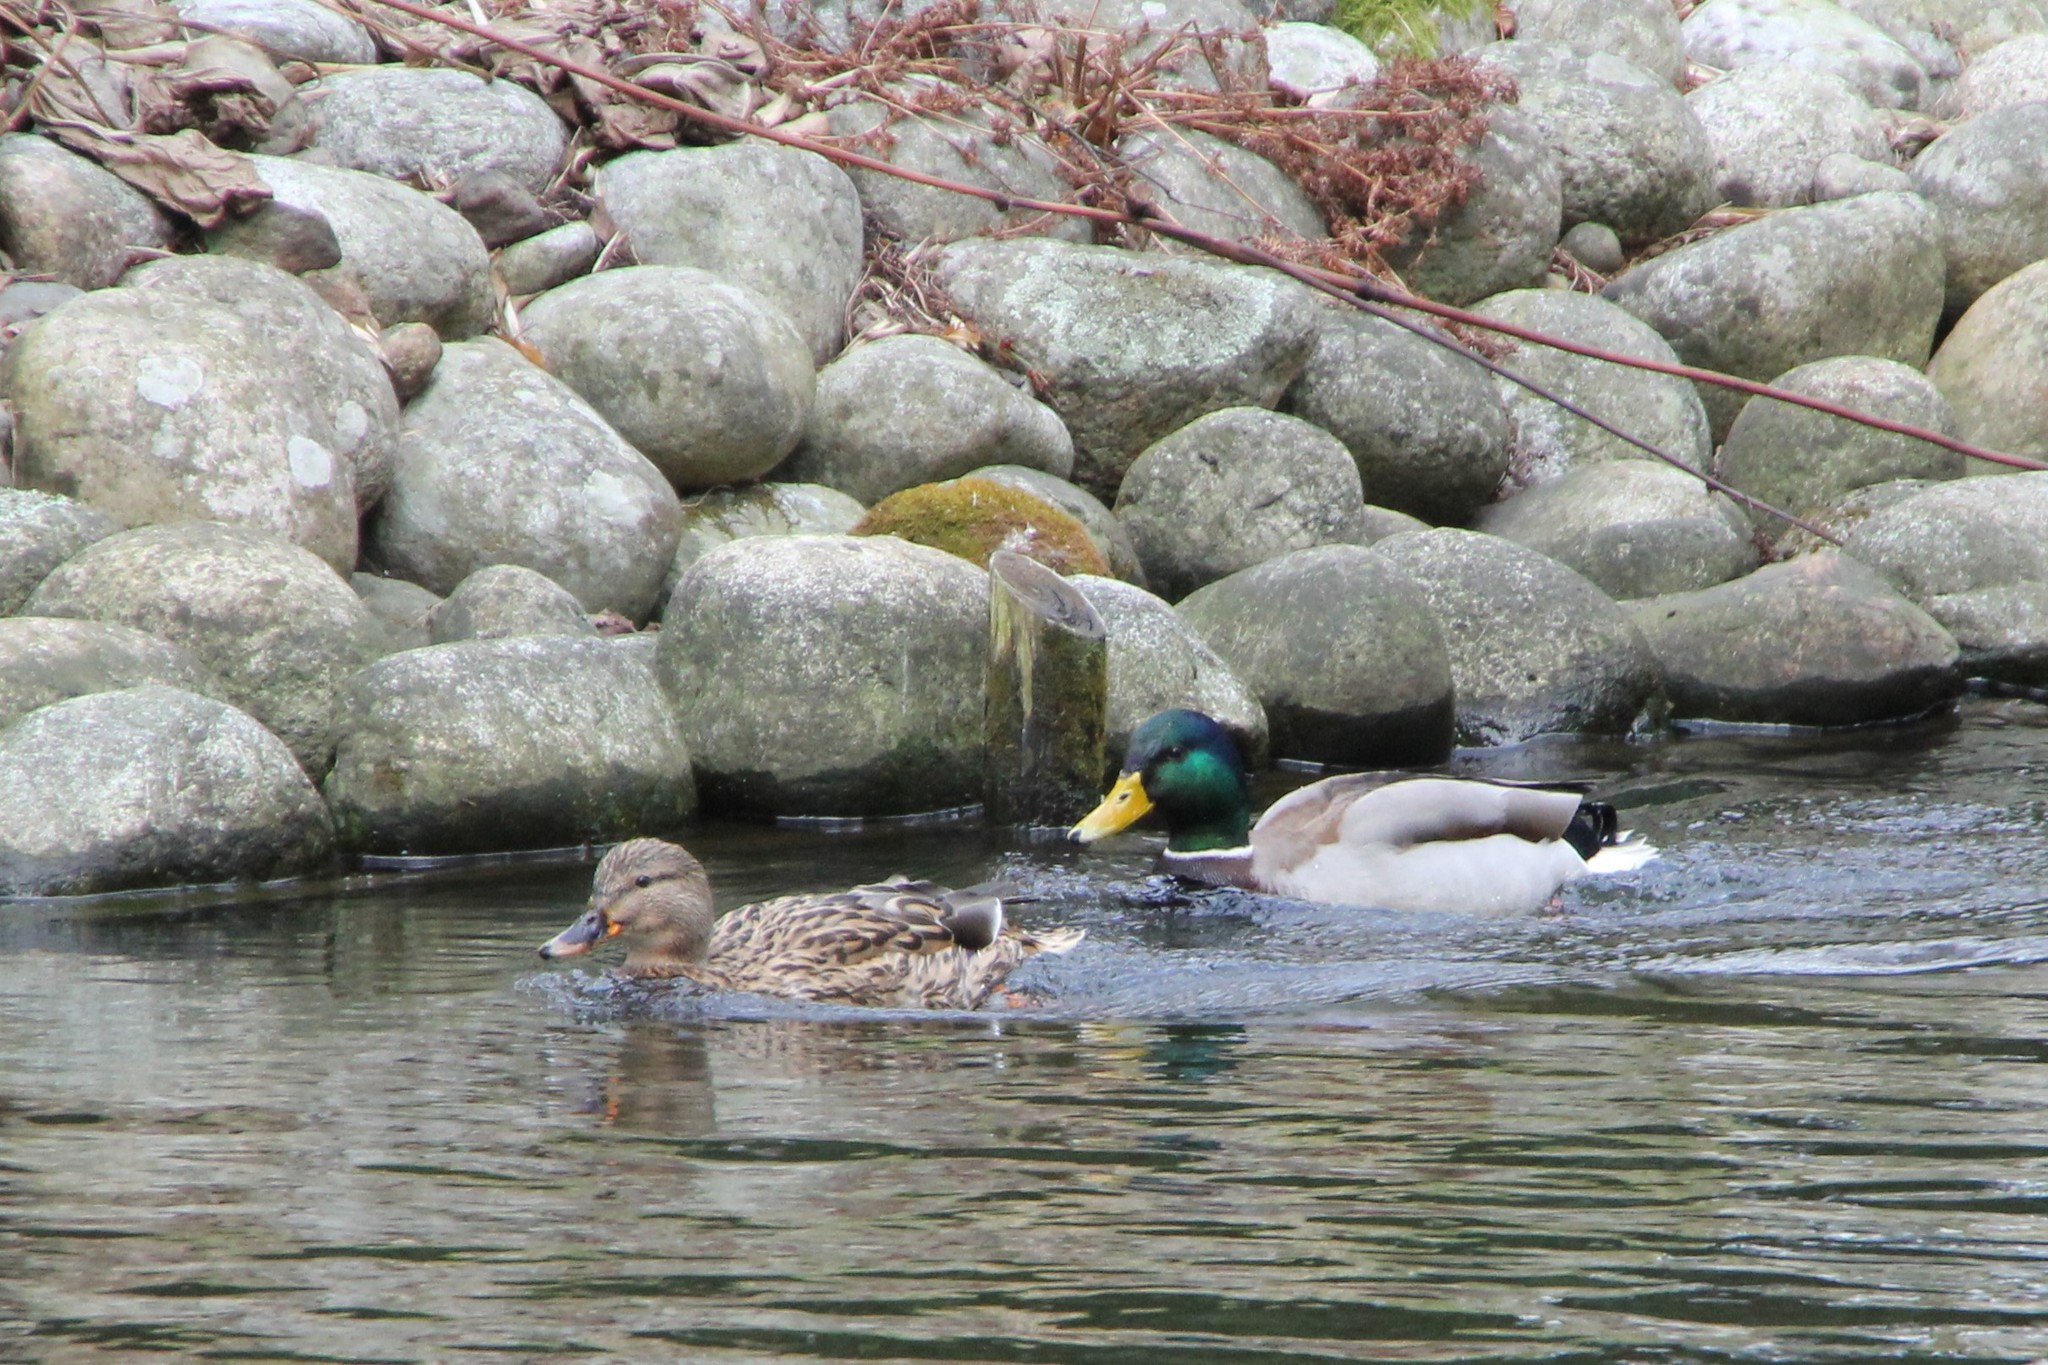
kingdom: Animalia
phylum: Chordata
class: Aves
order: Anseriformes
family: Anatidae
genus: Anas
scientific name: Anas platyrhynchos
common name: Mallard
